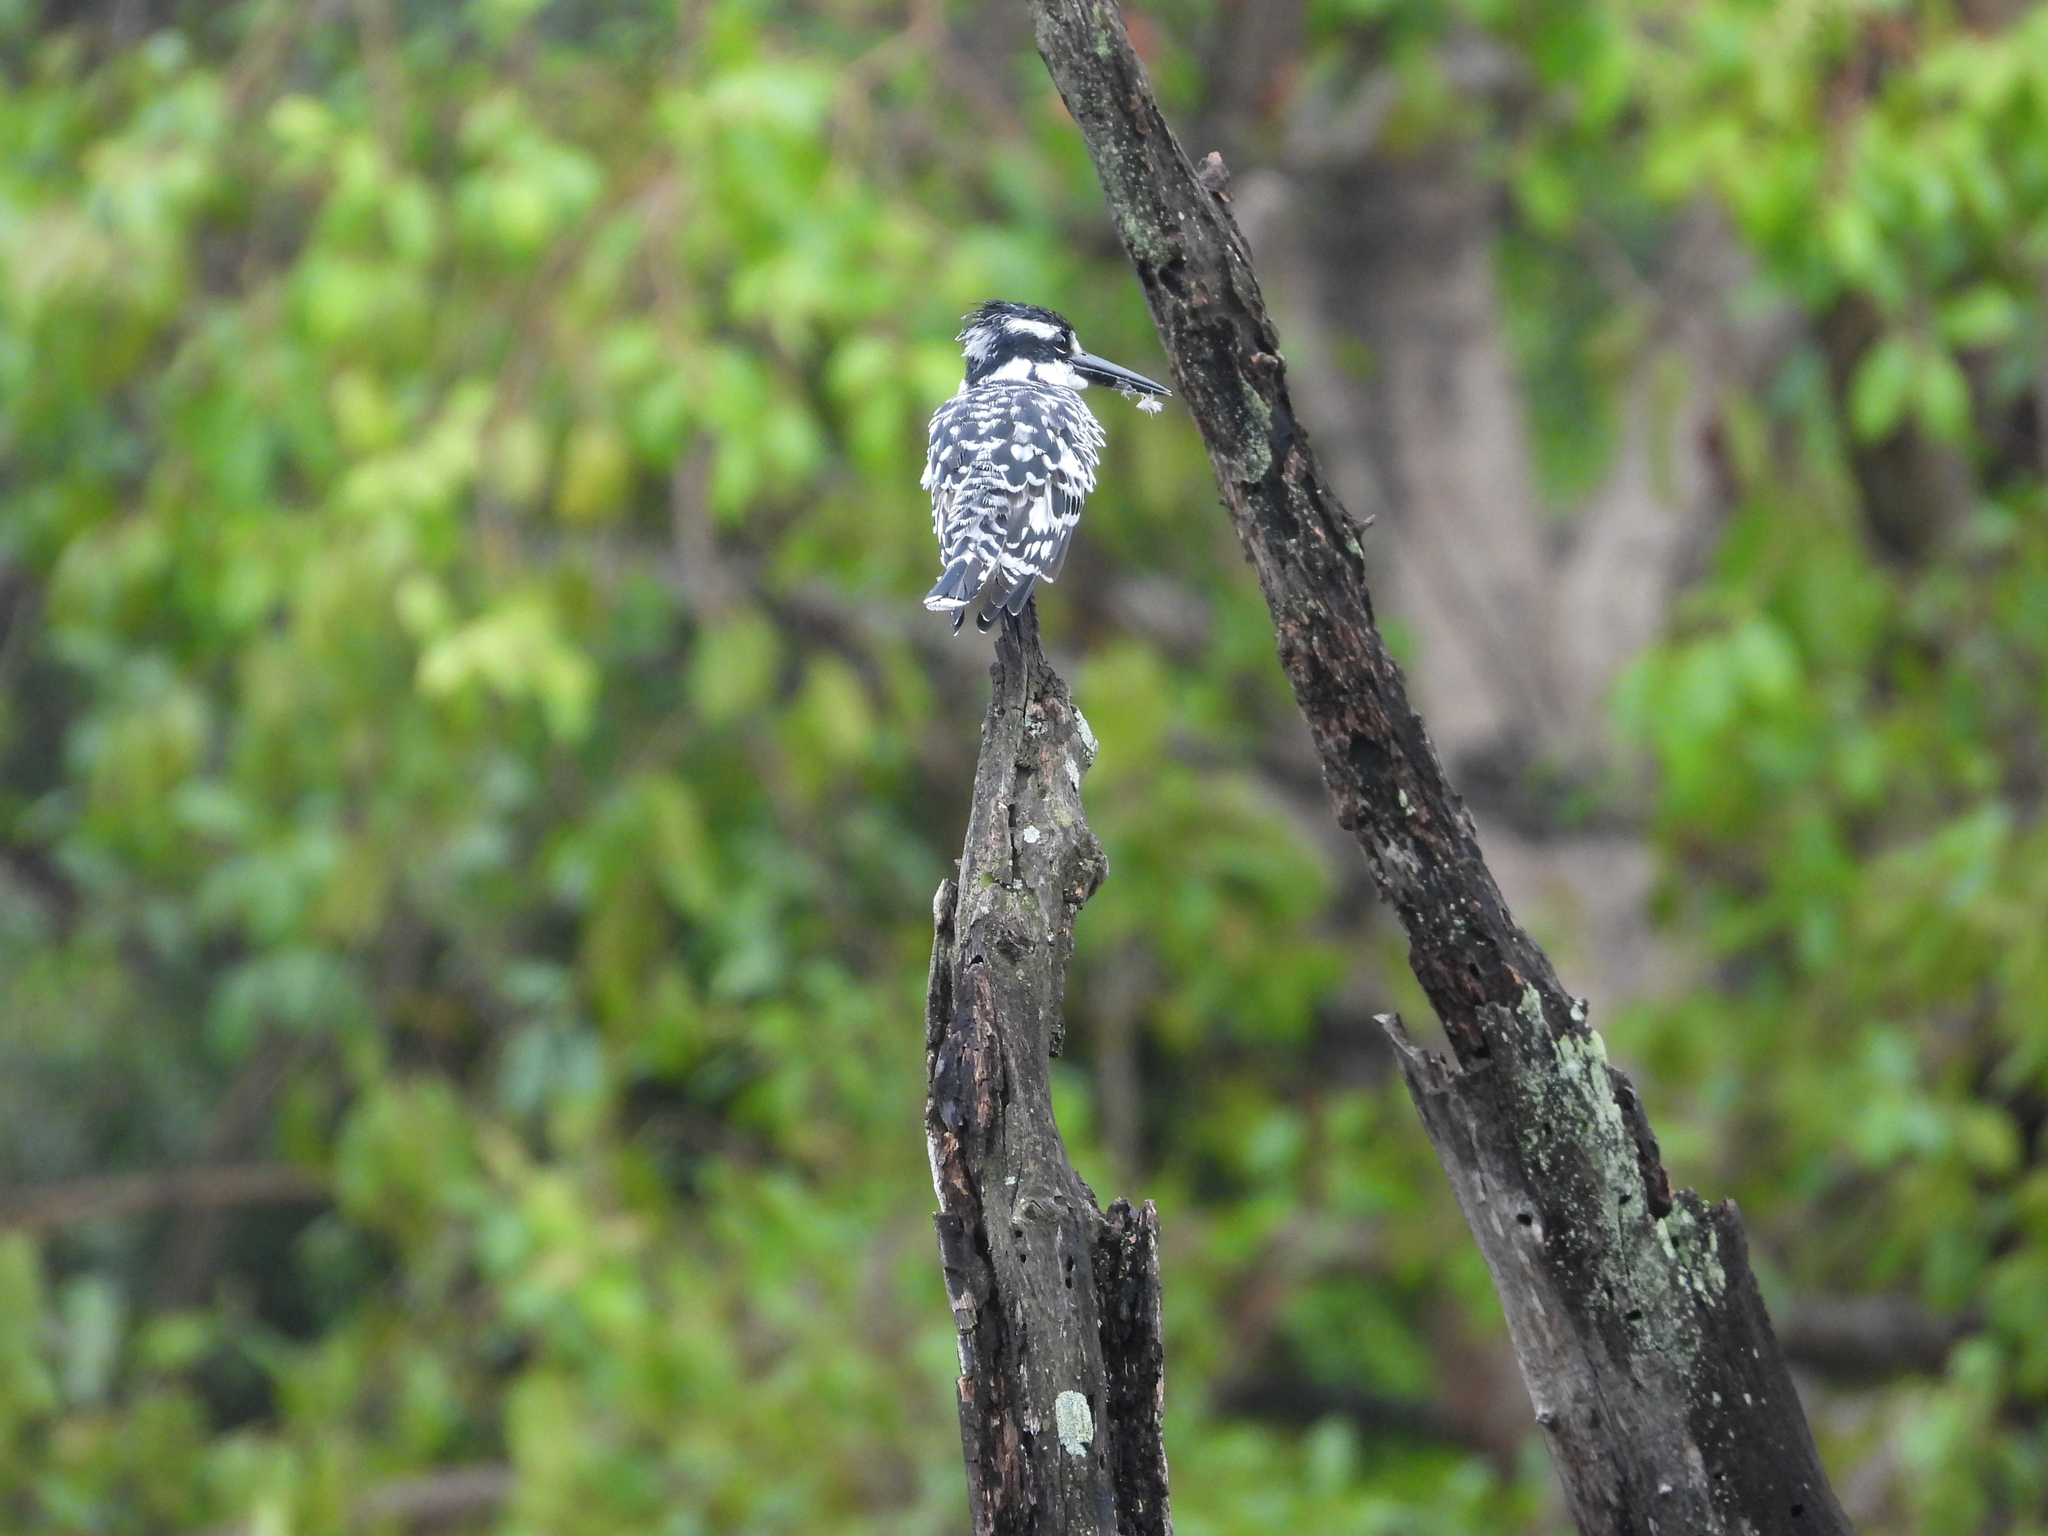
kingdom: Animalia
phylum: Chordata
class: Aves
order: Coraciiformes
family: Alcedinidae
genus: Ceryle
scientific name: Ceryle rudis
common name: Pied kingfisher
